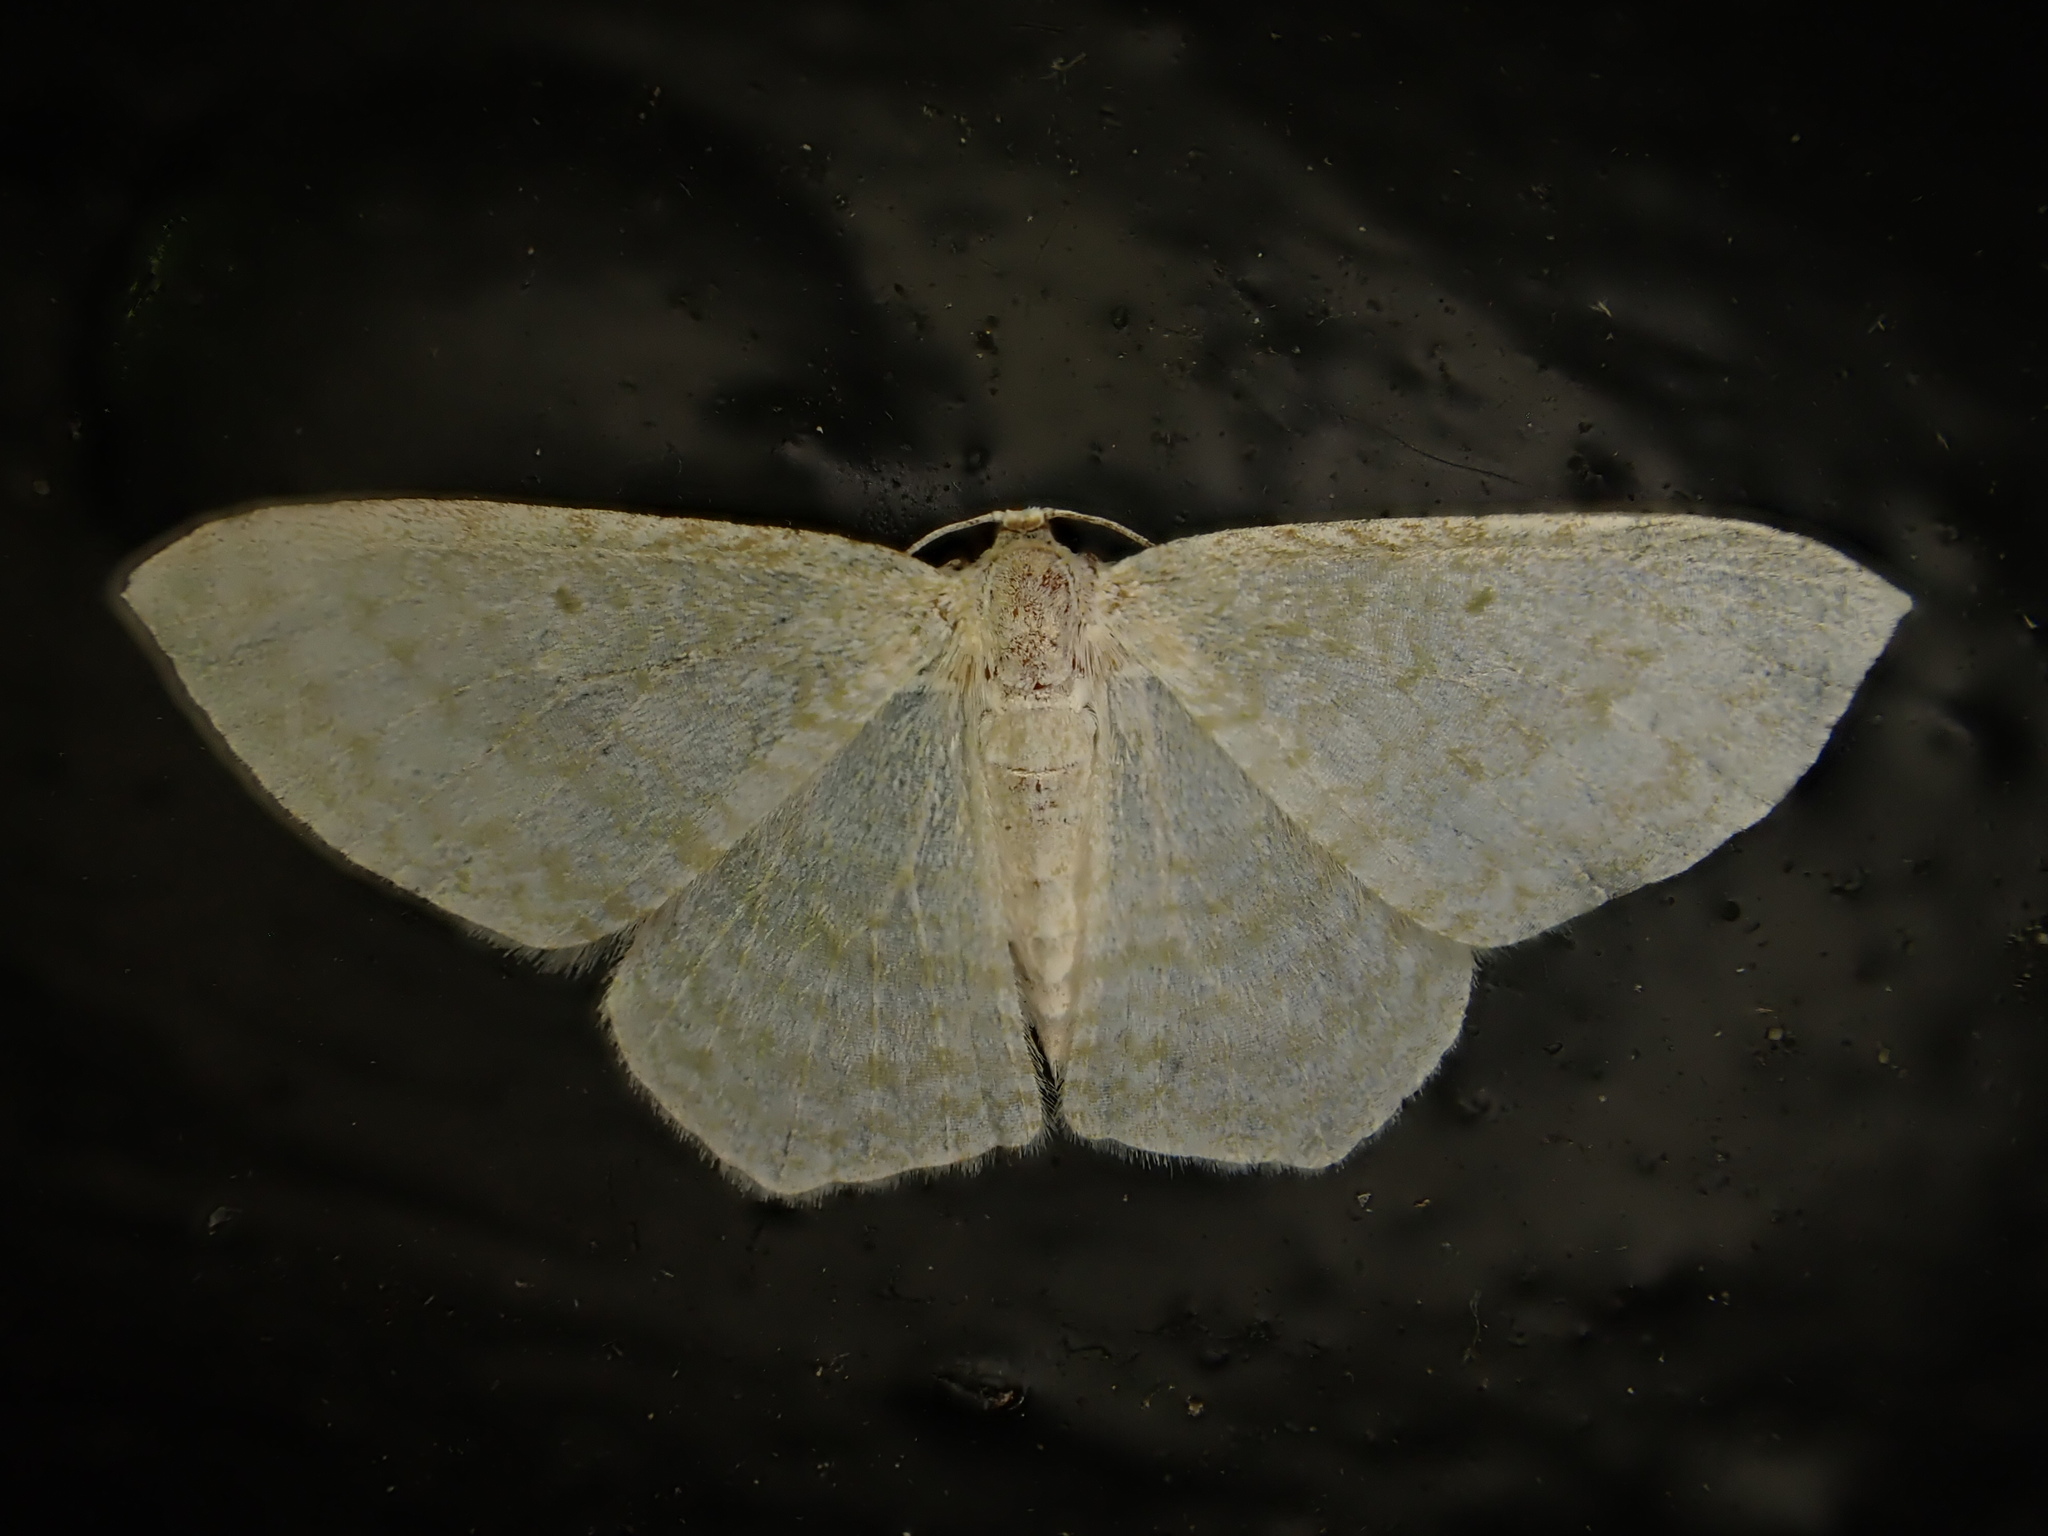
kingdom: Animalia
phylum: Arthropoda
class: Insecta
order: Lepidoptera
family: Geometridae
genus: Poecilasthena
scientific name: Poecilasthena pulchraria
